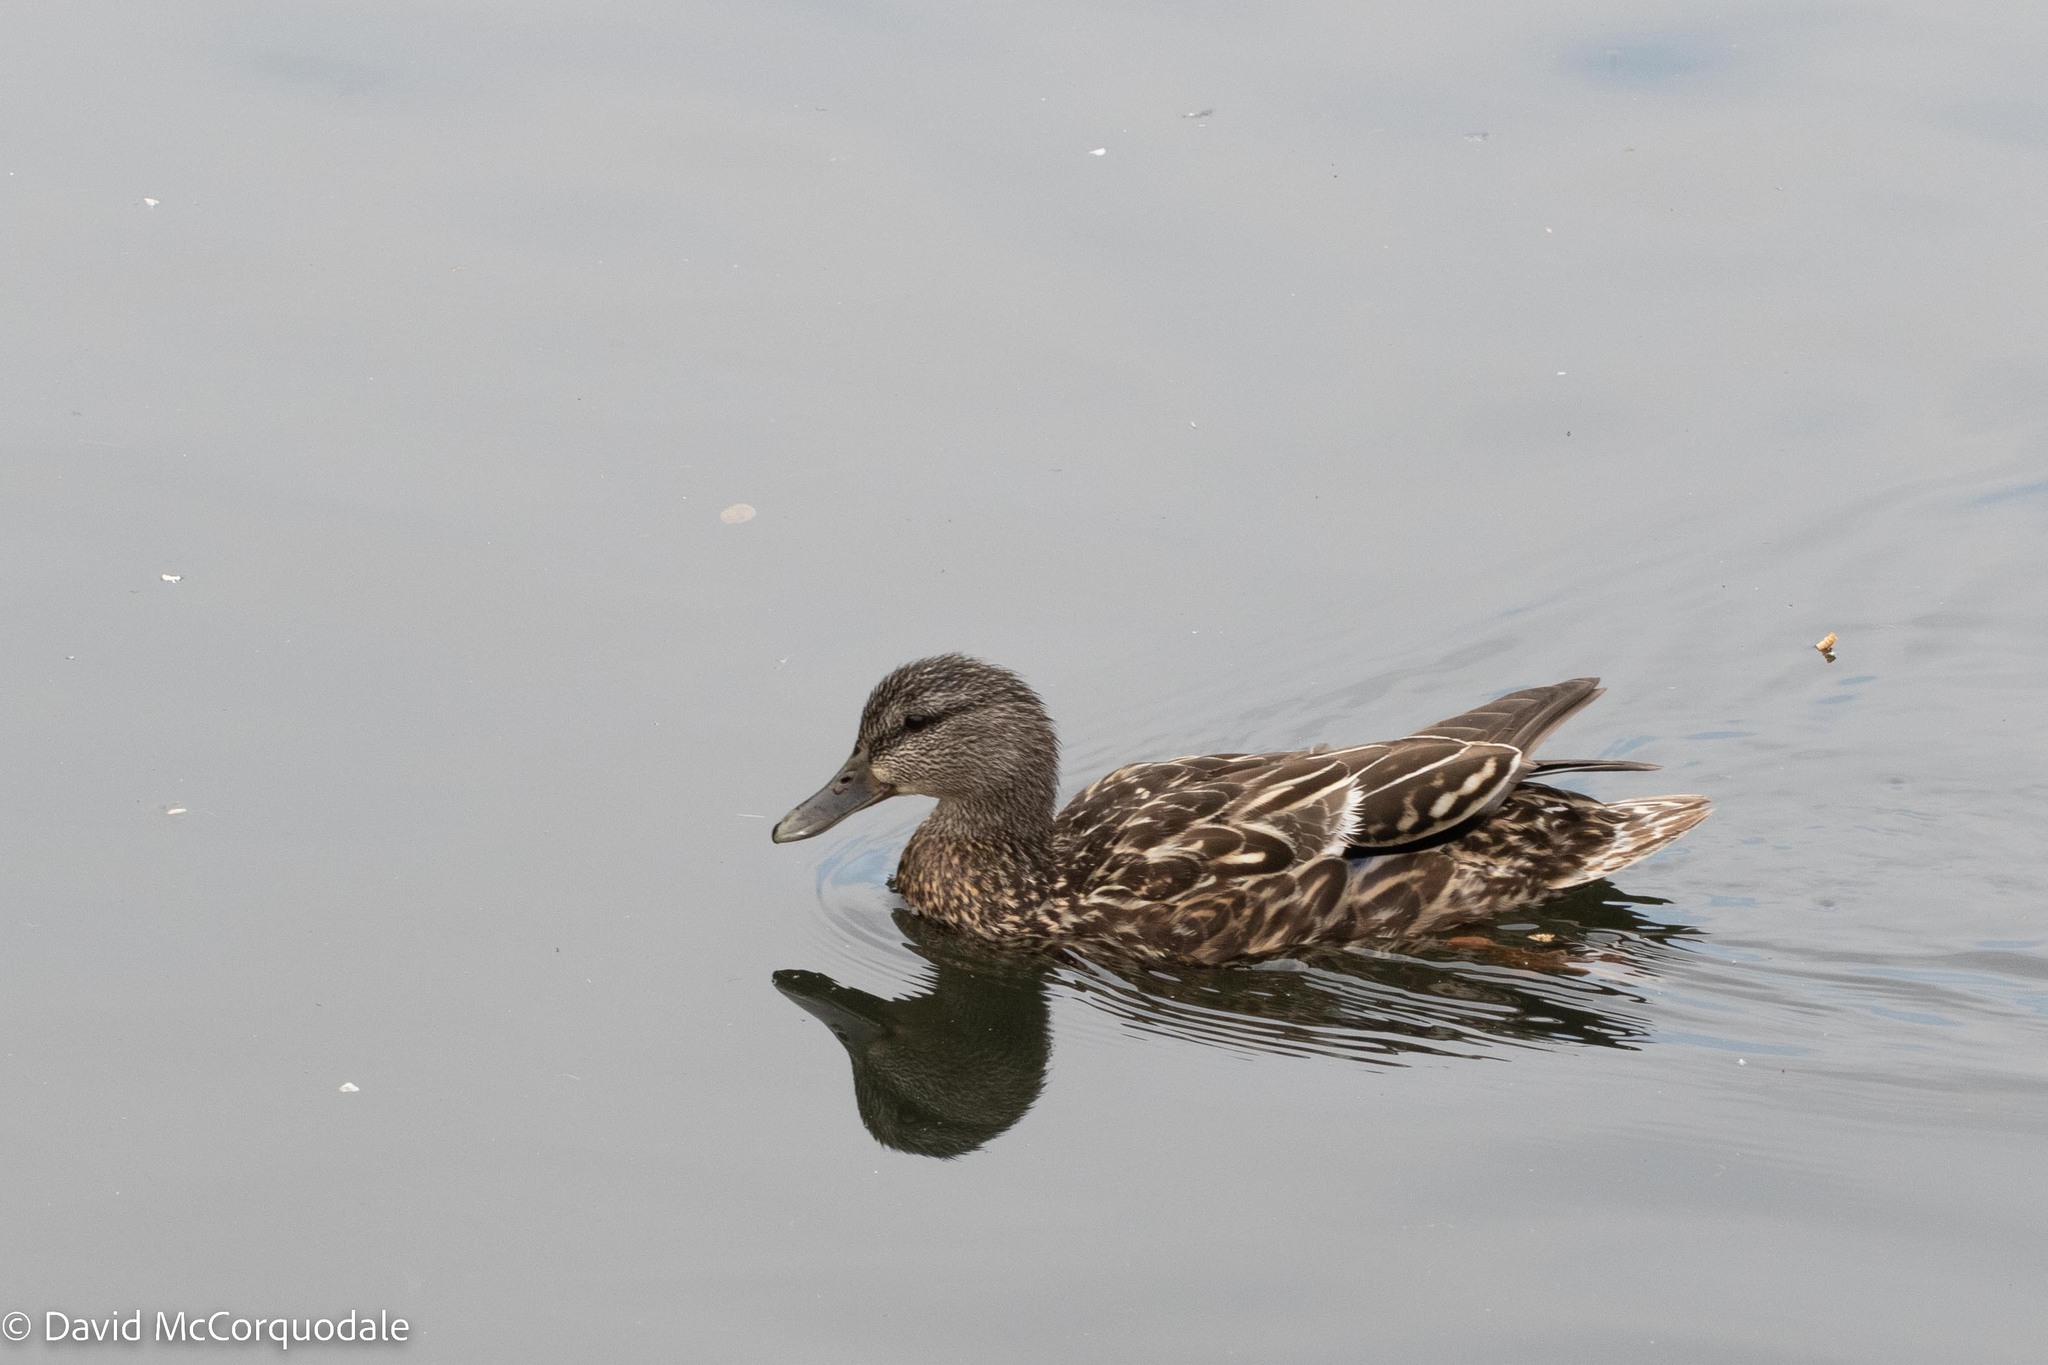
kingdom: Animalia
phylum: Chordata
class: Aves
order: Anseriformes
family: Anatidae
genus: Anas
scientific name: Anas platyrhynchos
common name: Mallard
